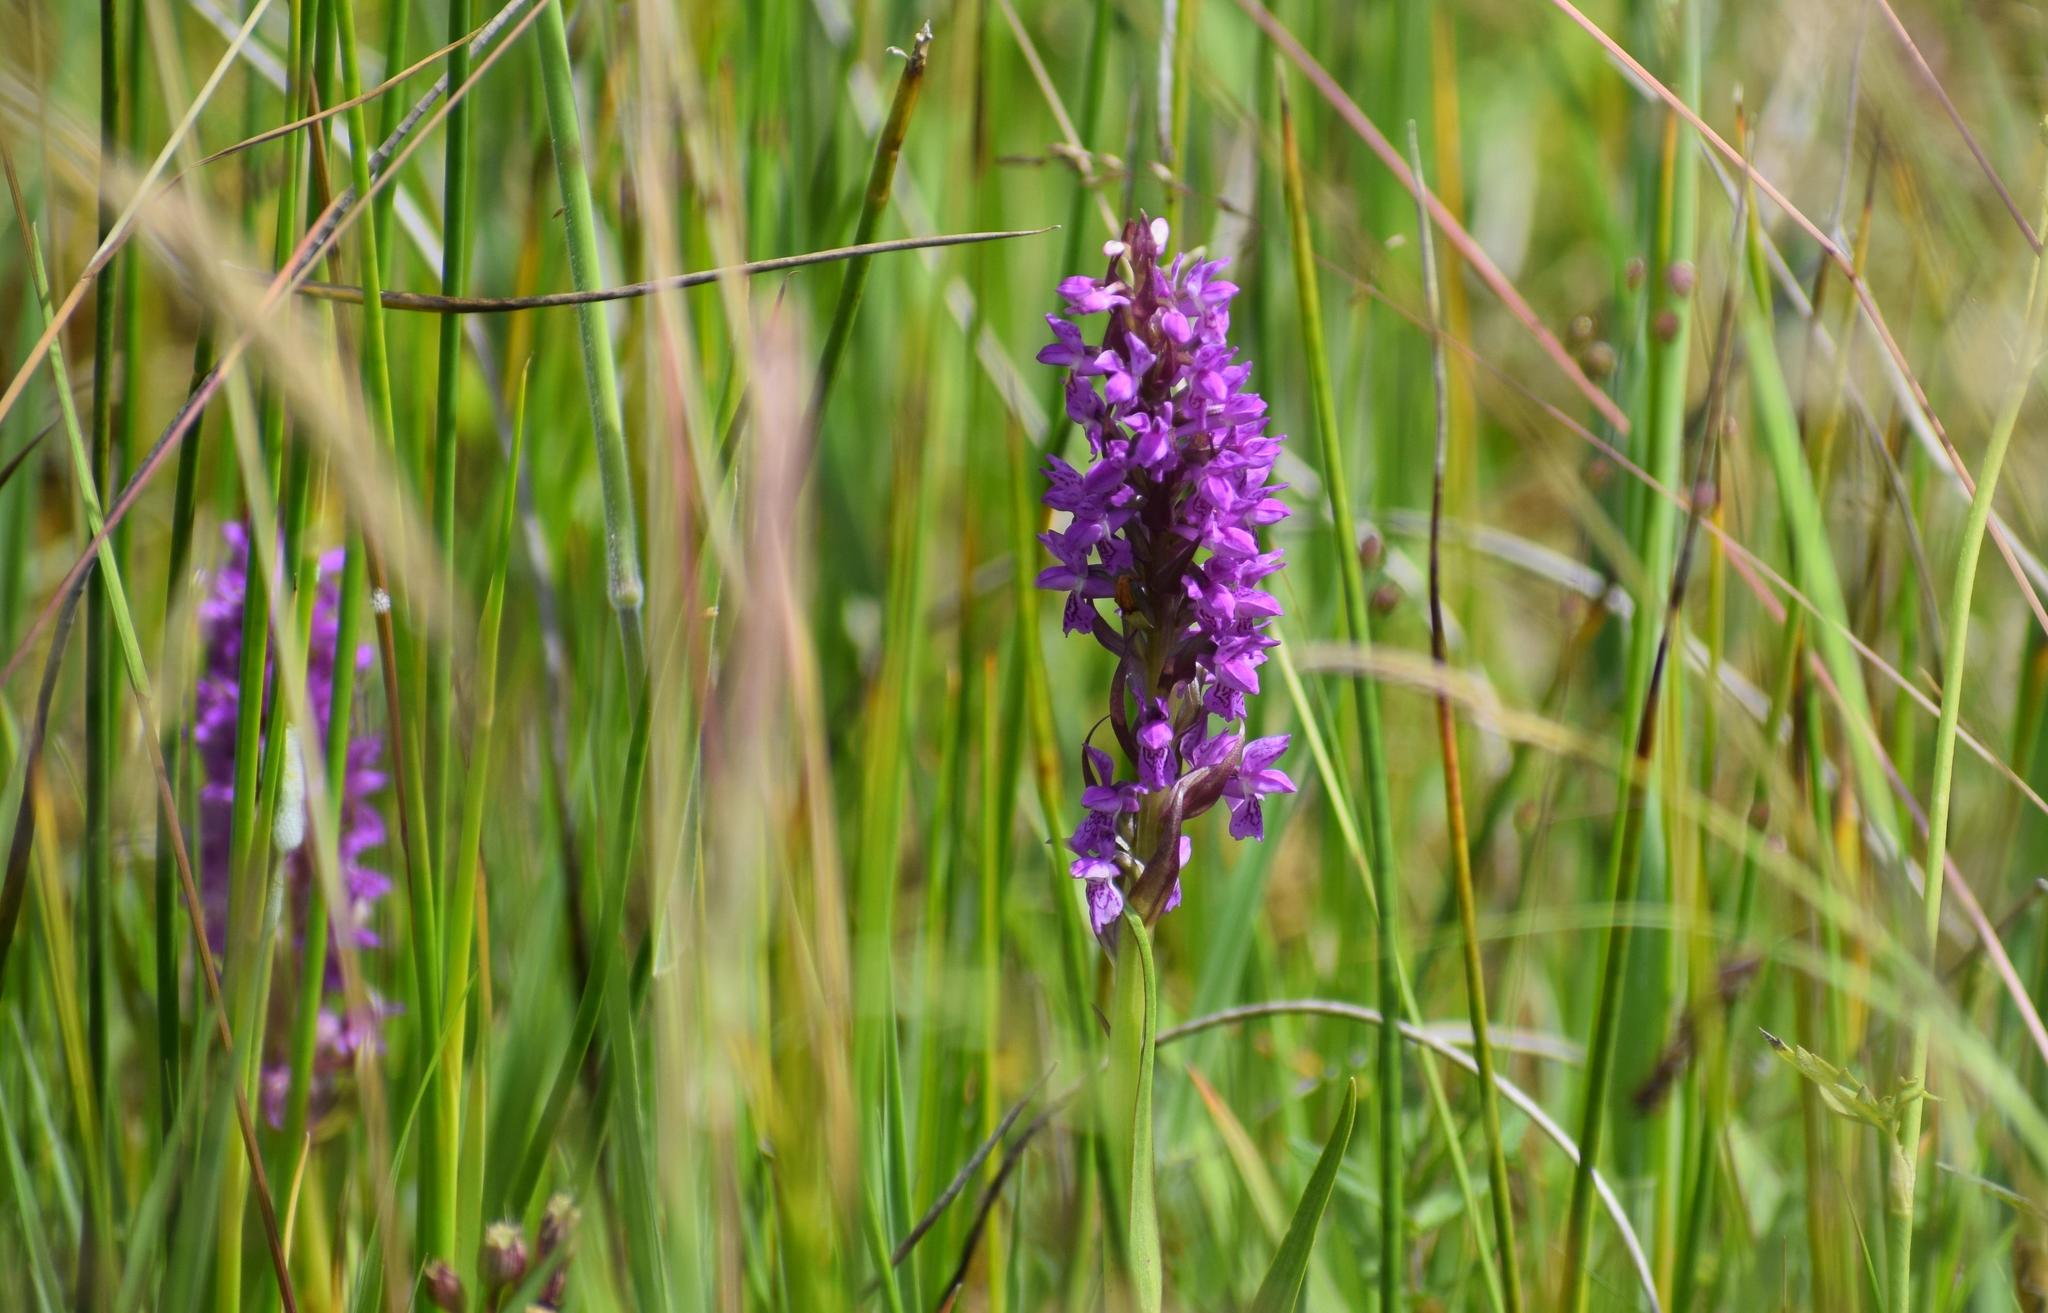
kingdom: Plantae
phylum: Tracheophyta
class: Liliopsida
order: Asparagales
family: Orchidaceae
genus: Dactylorhiza
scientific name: Dactylorhiza incarnata
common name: Early marsh-orchid
